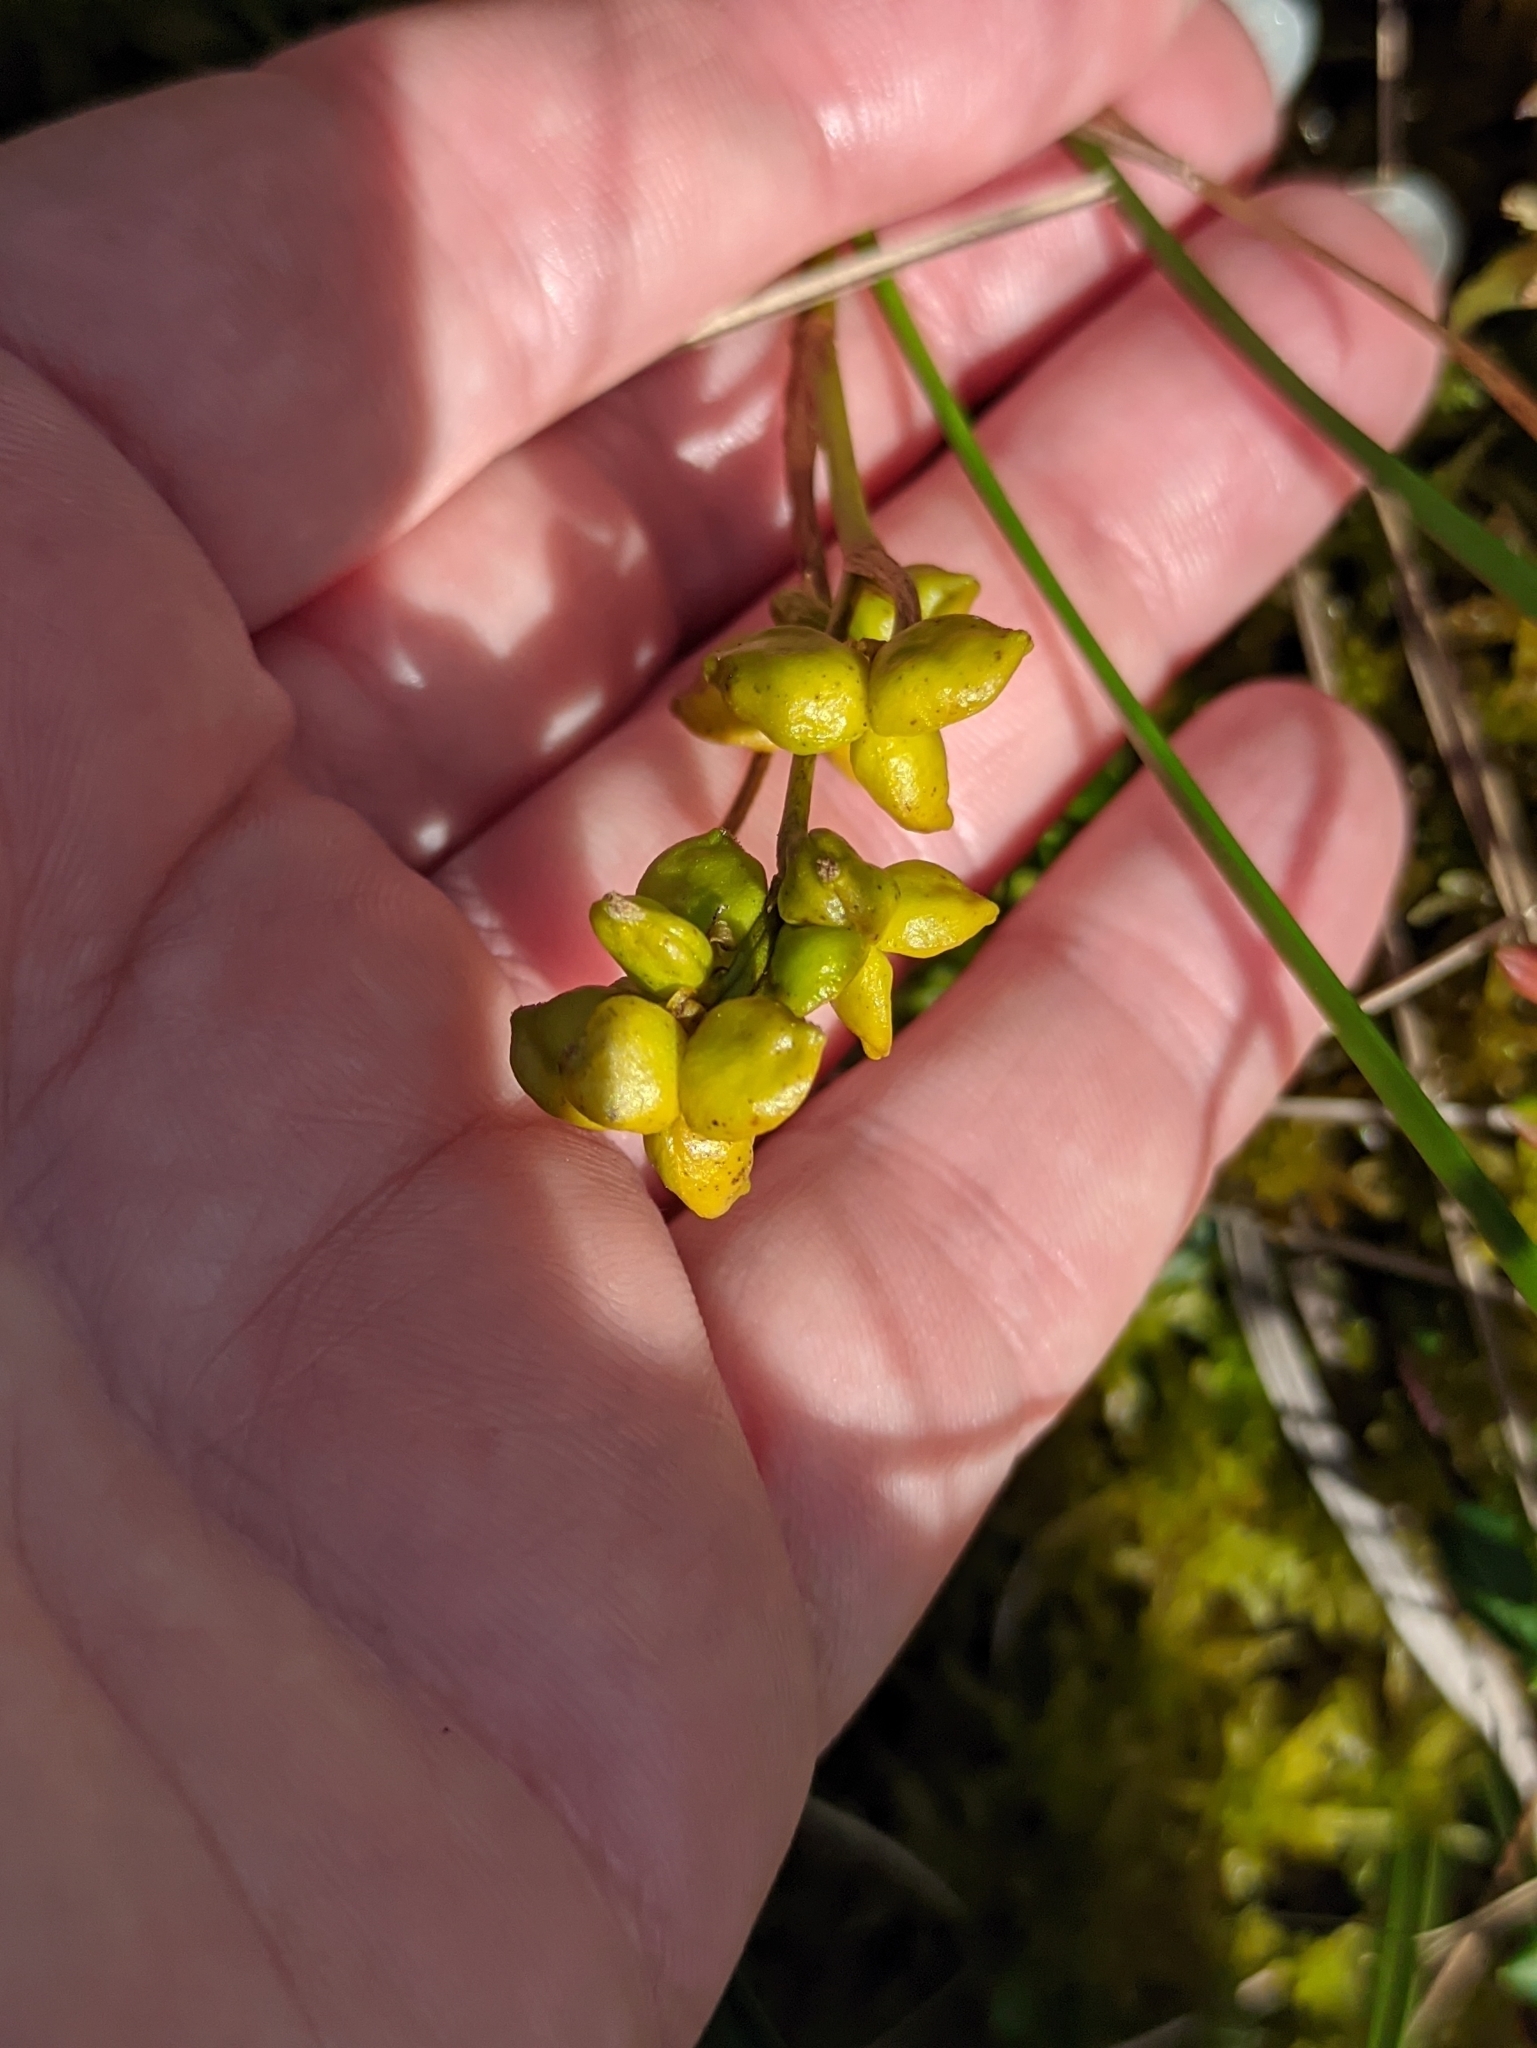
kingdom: Plantae
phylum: Tracheophyta
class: Liliopsida
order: Alismatales
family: Scheuchzeriaceae
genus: Scheuchzeria
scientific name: Scheuchzeria palustris
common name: Rannoch-rush
